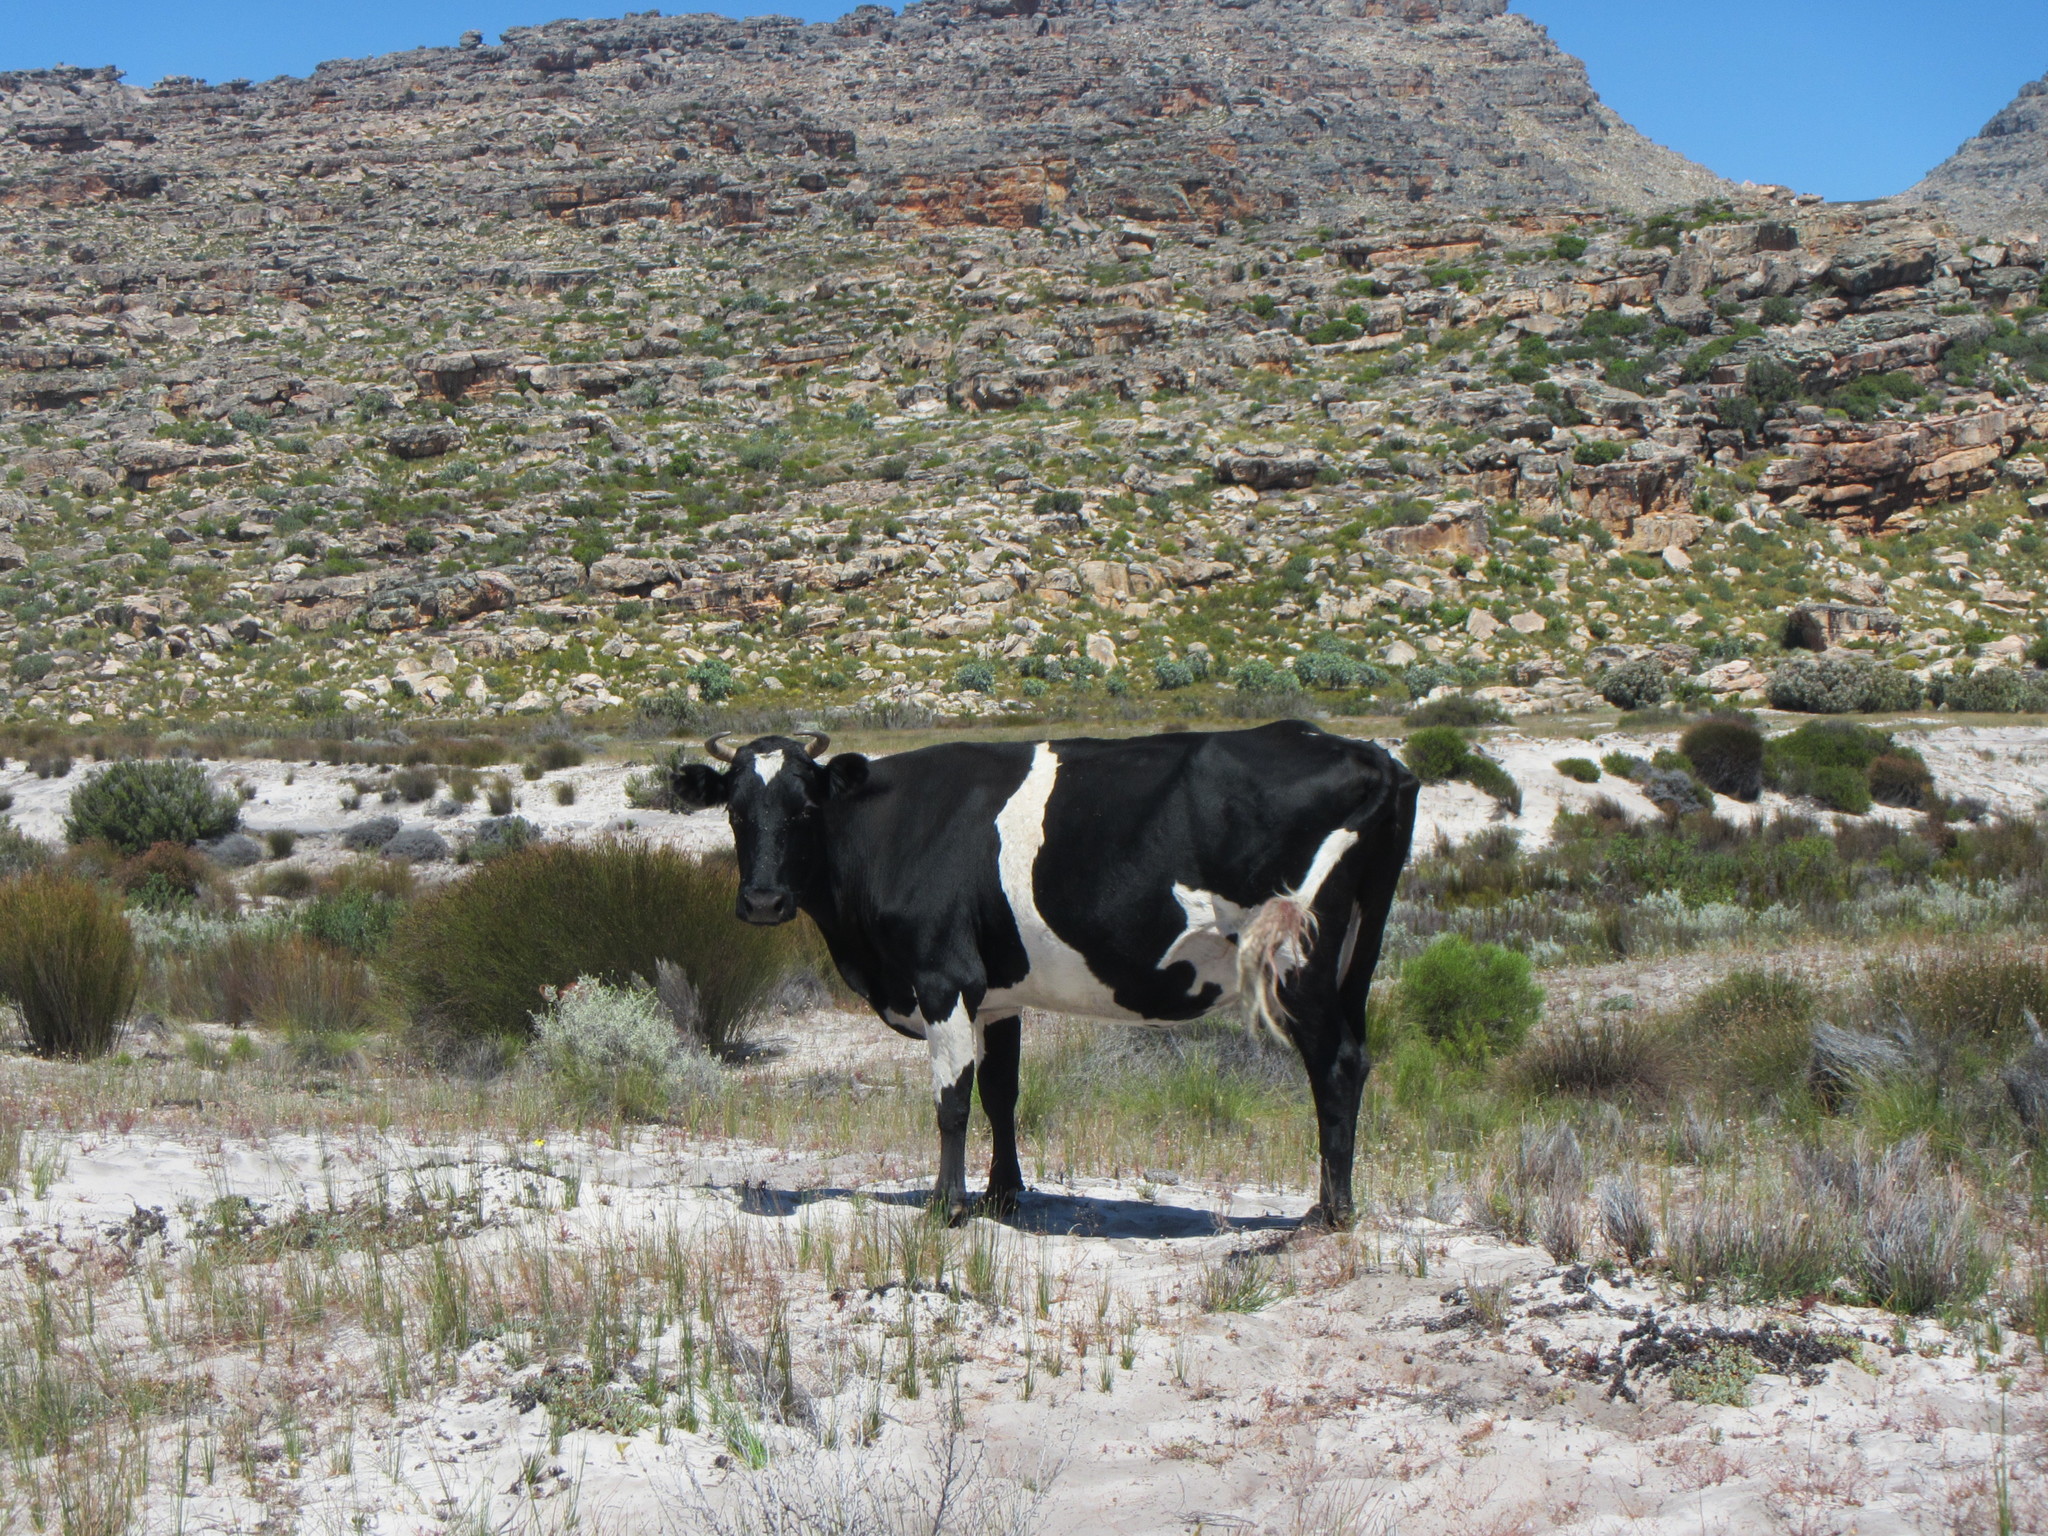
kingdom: Animalia
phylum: Chordata
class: Mammalia
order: Artiodactyla
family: Bovidae
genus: Bos
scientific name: Bos taurus
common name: Domesticated cattle
